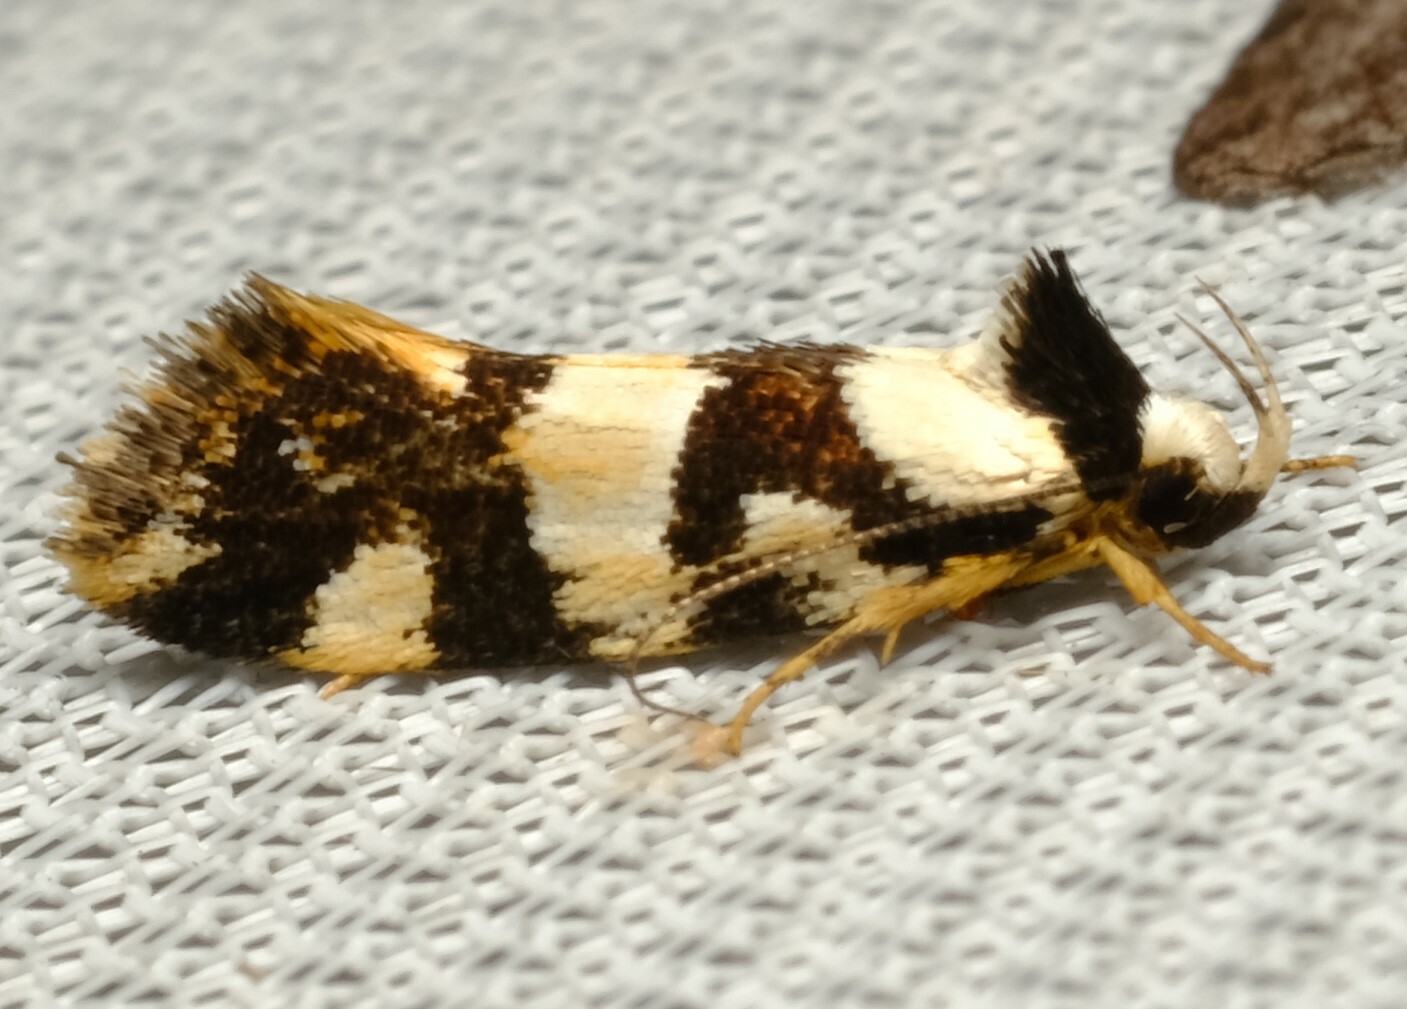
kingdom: Animalia
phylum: Arthropoda
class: Insecta
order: Lepidoptera
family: Oecophoridae
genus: Barea
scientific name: Barea meridarcha
